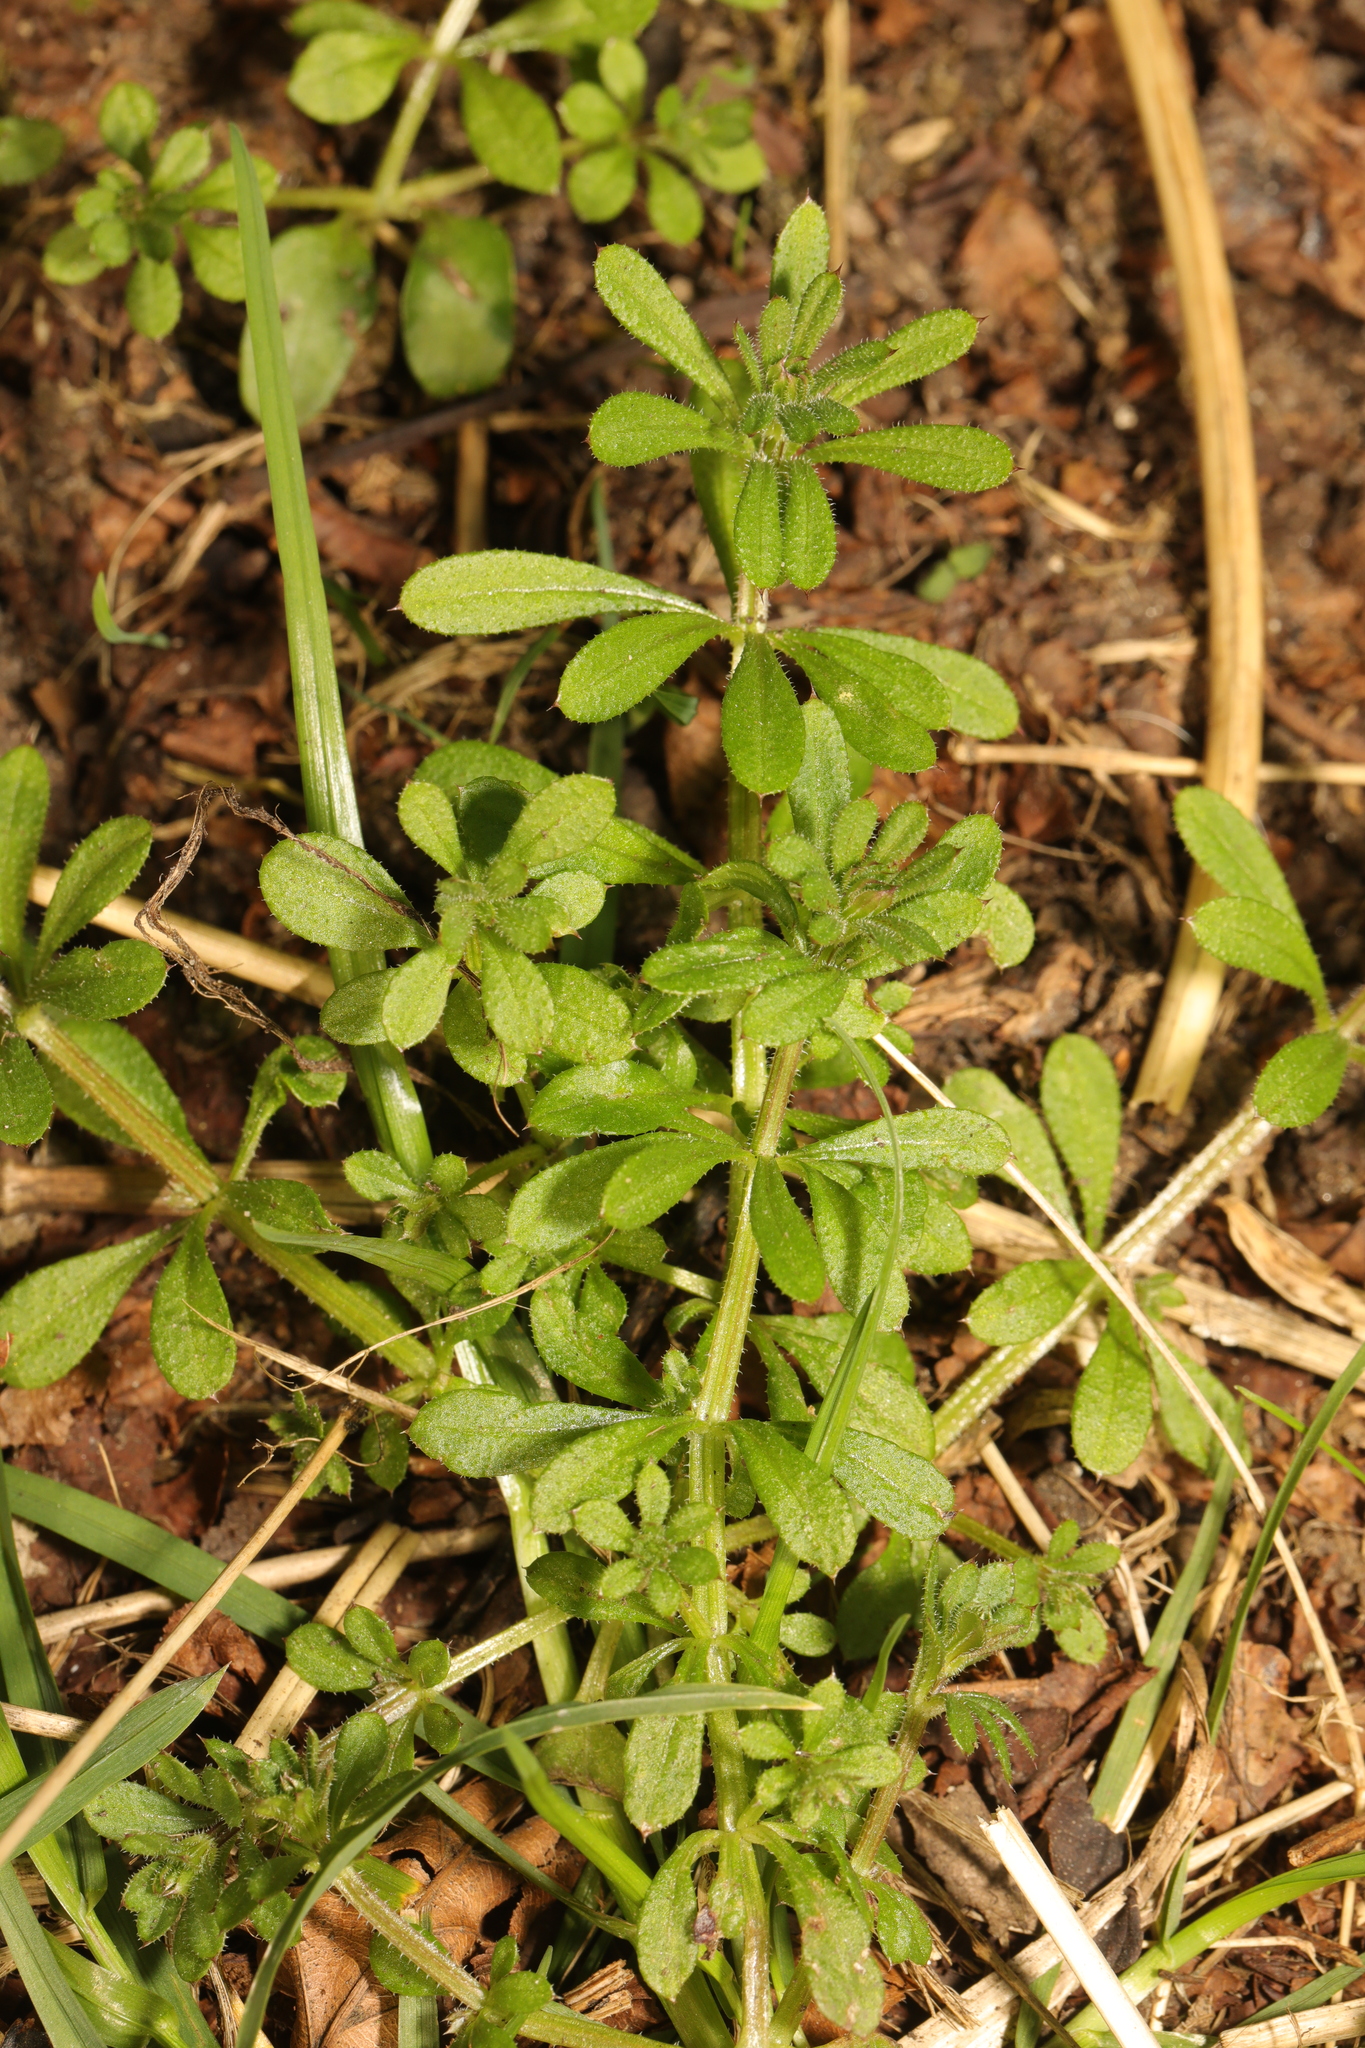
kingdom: Plantae
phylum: Tracheophyta
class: Magnoliopsida
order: Gentianales
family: Rubiaceae
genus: Galium
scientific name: Galium aparine
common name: Cleavers
